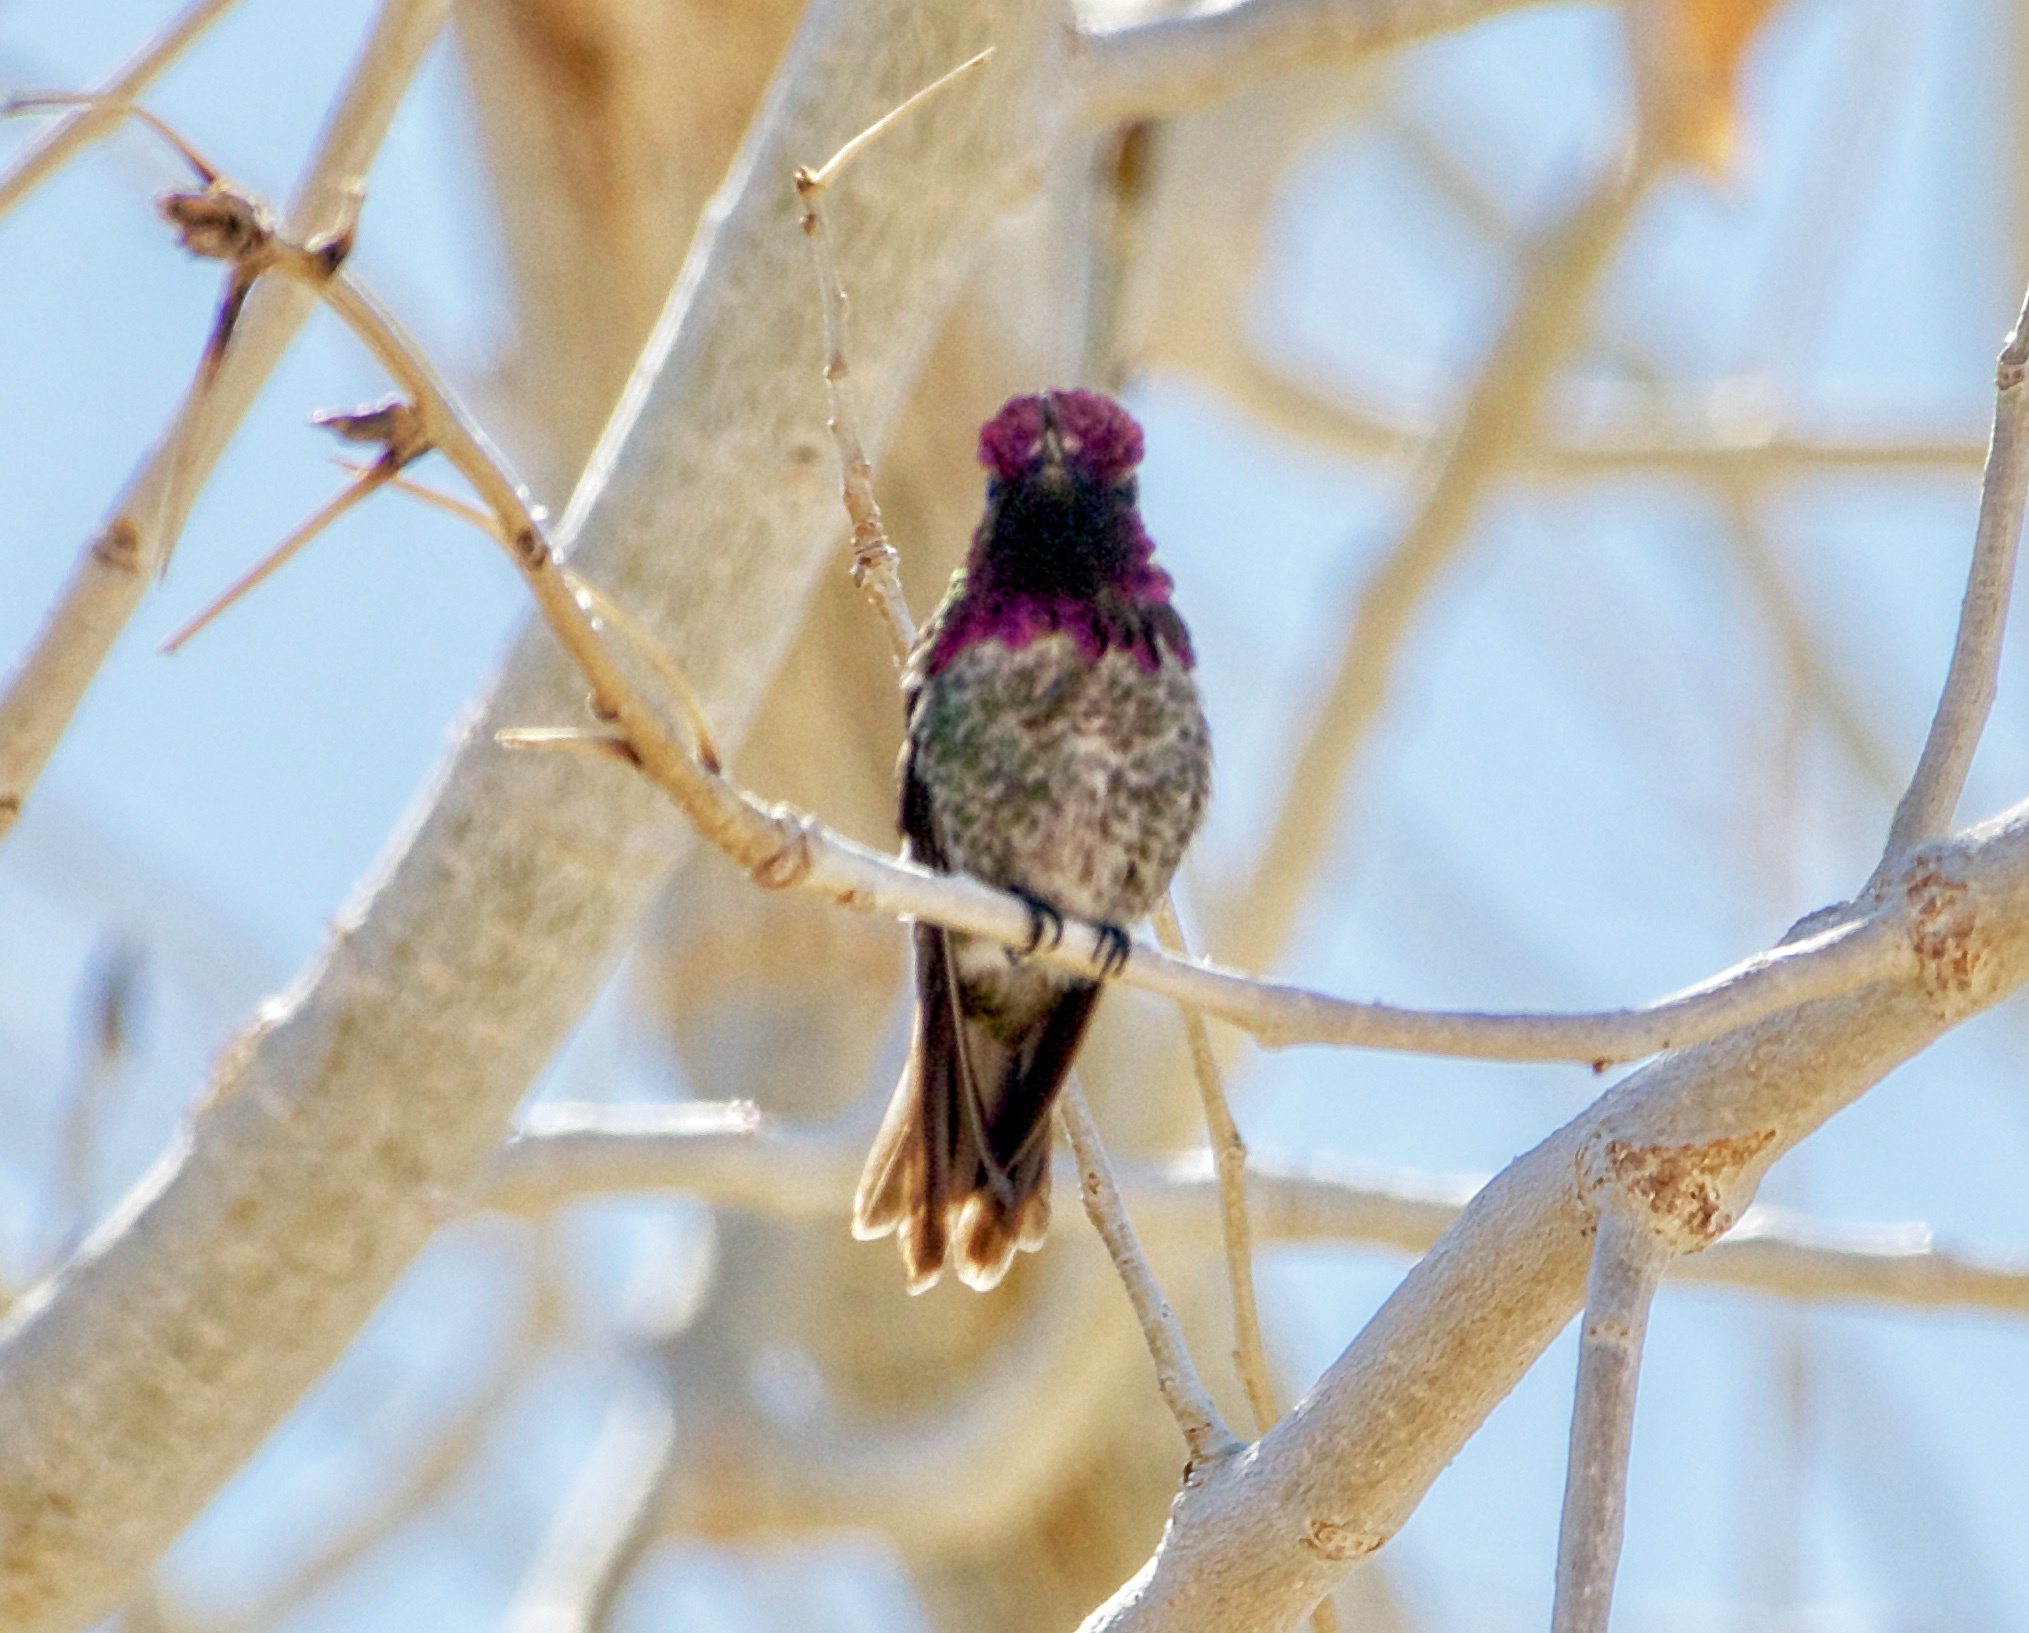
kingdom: Animalia
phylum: Chordata
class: Aves
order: Apodiformes
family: Trochilidae
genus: Calypte
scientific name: Calypte anna
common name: Anna's hummingbird
